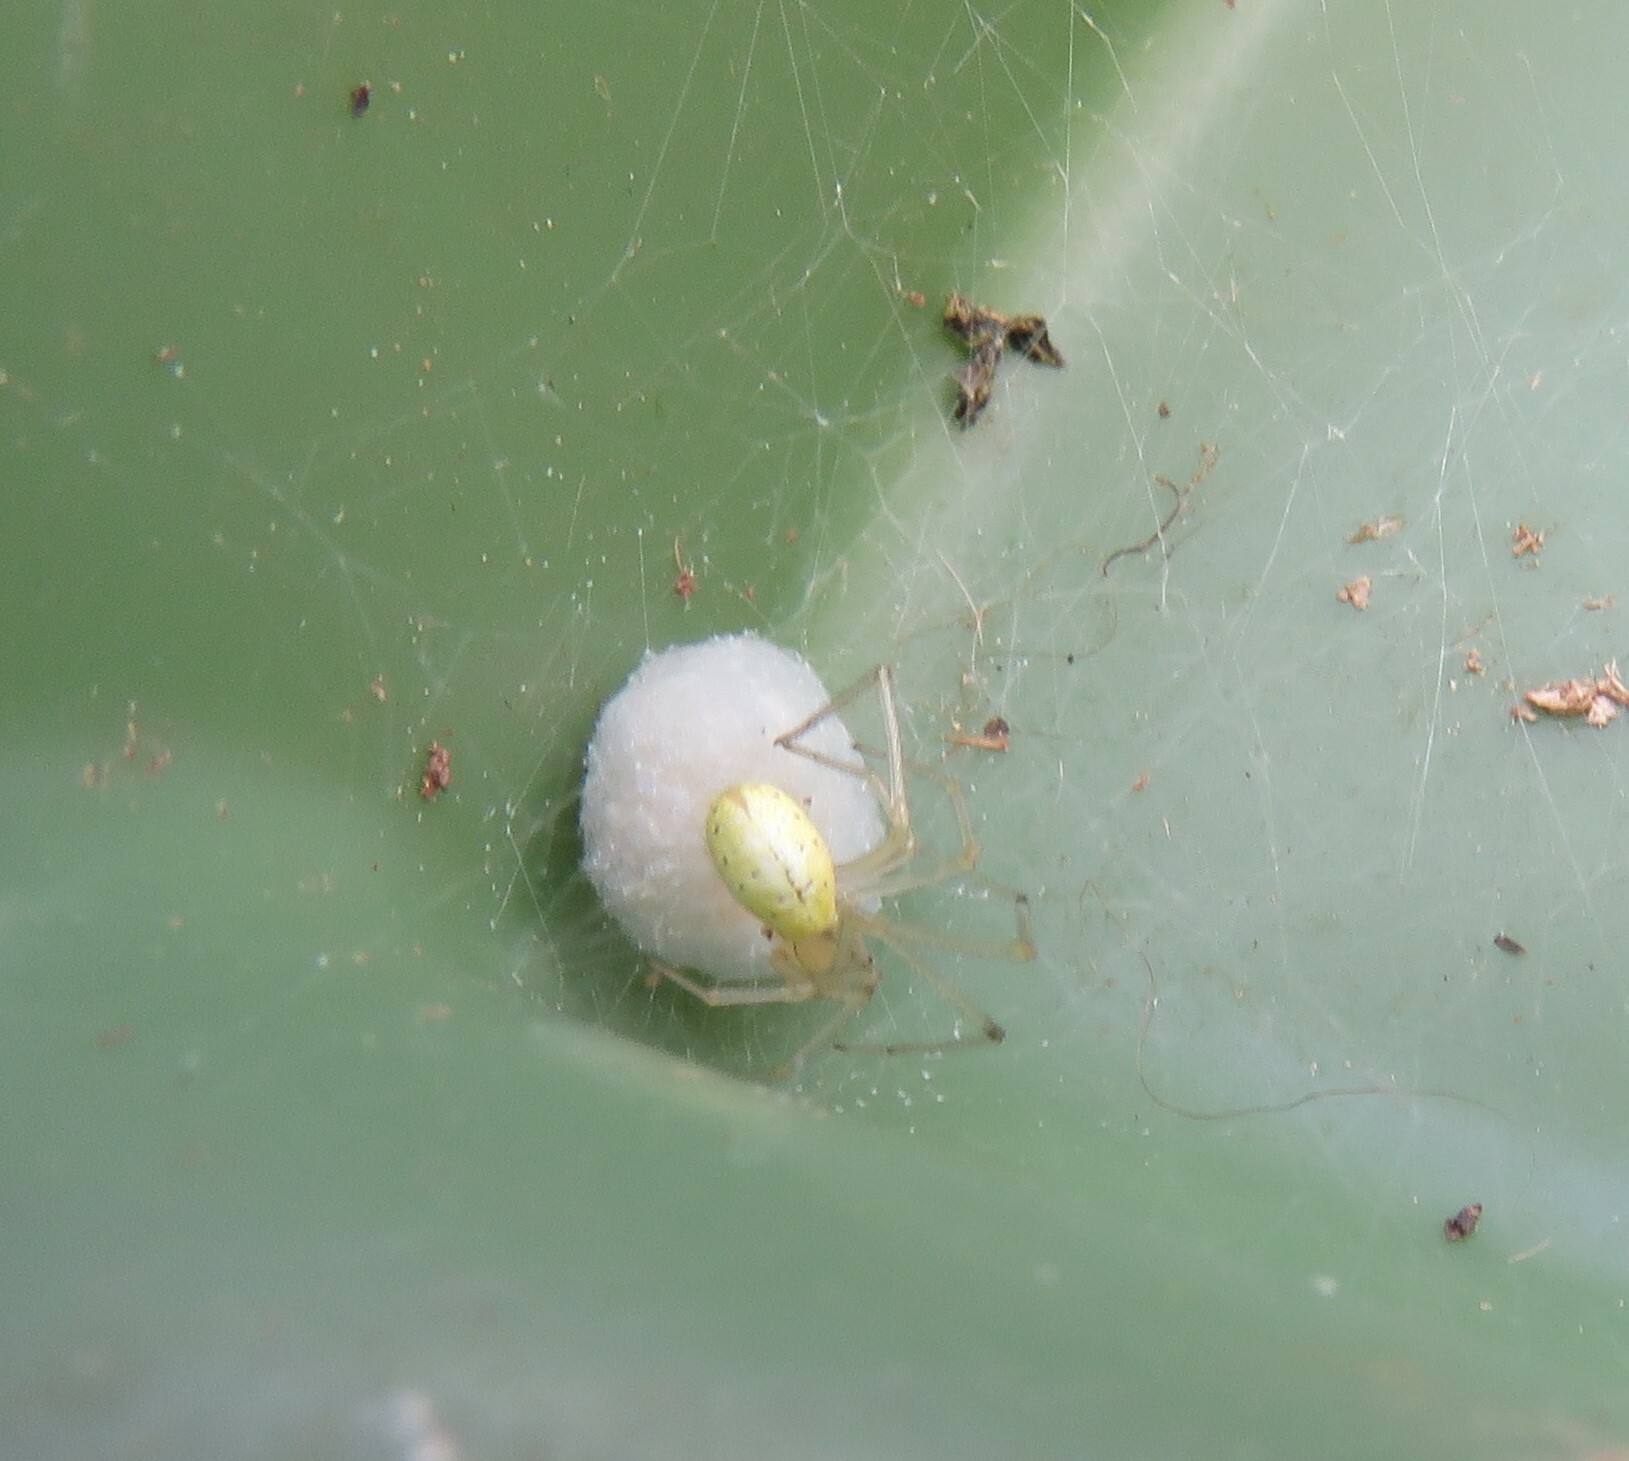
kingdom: Animalia
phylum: Arthropoda
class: Arachnida
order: Araneae
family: Theridiidae
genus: Enoplognatha
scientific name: Enoplognatha ovata
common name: Common candy-striped spider
